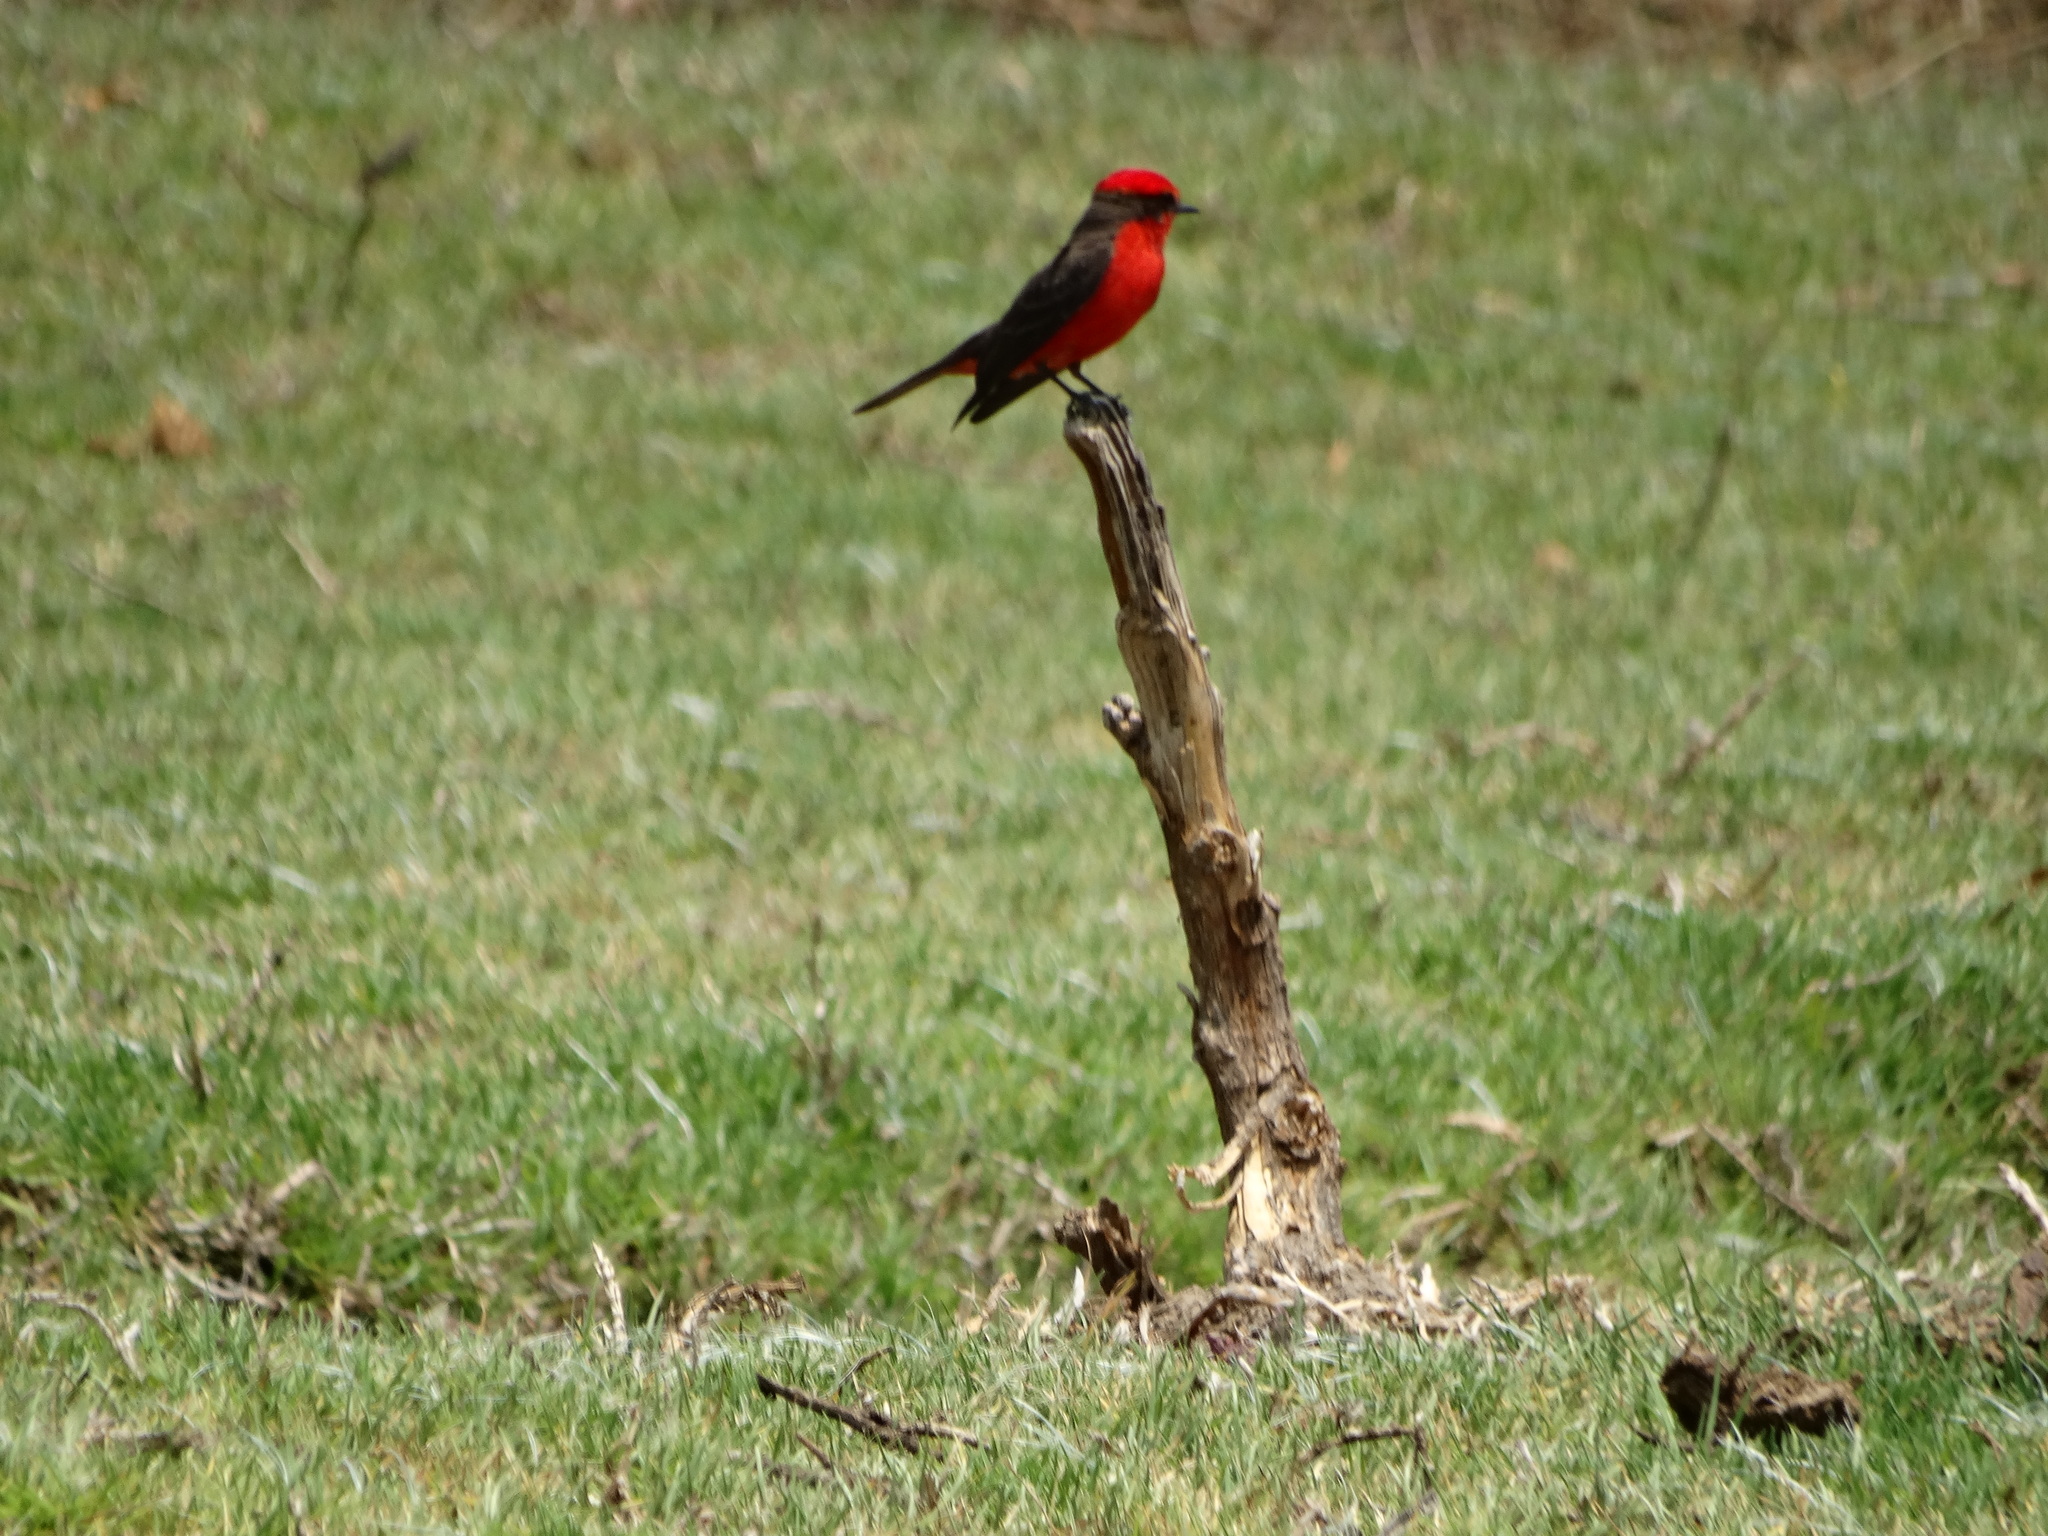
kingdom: Animalia
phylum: Chordata
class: Aves
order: Passeriformes
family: Tyrannidae
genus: Pyrocephalus
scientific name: Pyrocephalus rubinus
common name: Vermilion flycatcher
